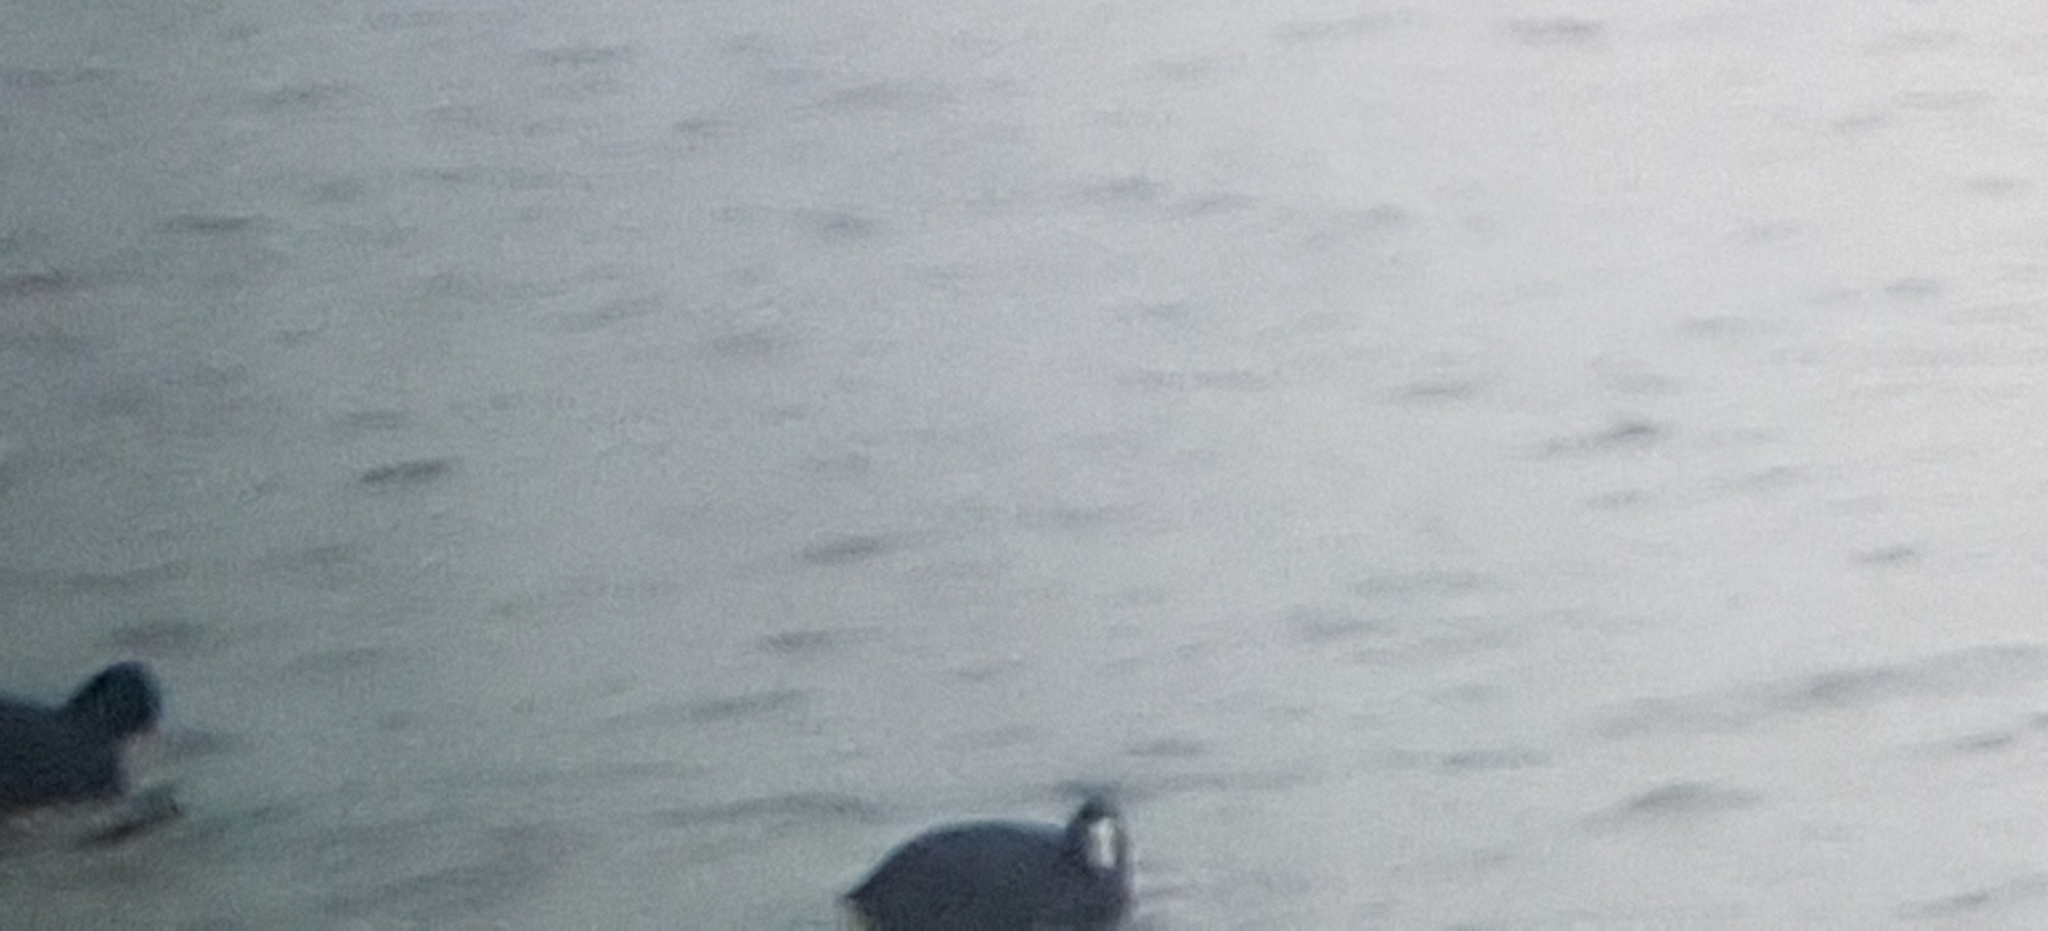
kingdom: Animalia
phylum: Chordata
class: Aves
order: Gruiformes
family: Rallidae
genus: Fulica
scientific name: Fulica atra
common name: Eurasian coot
